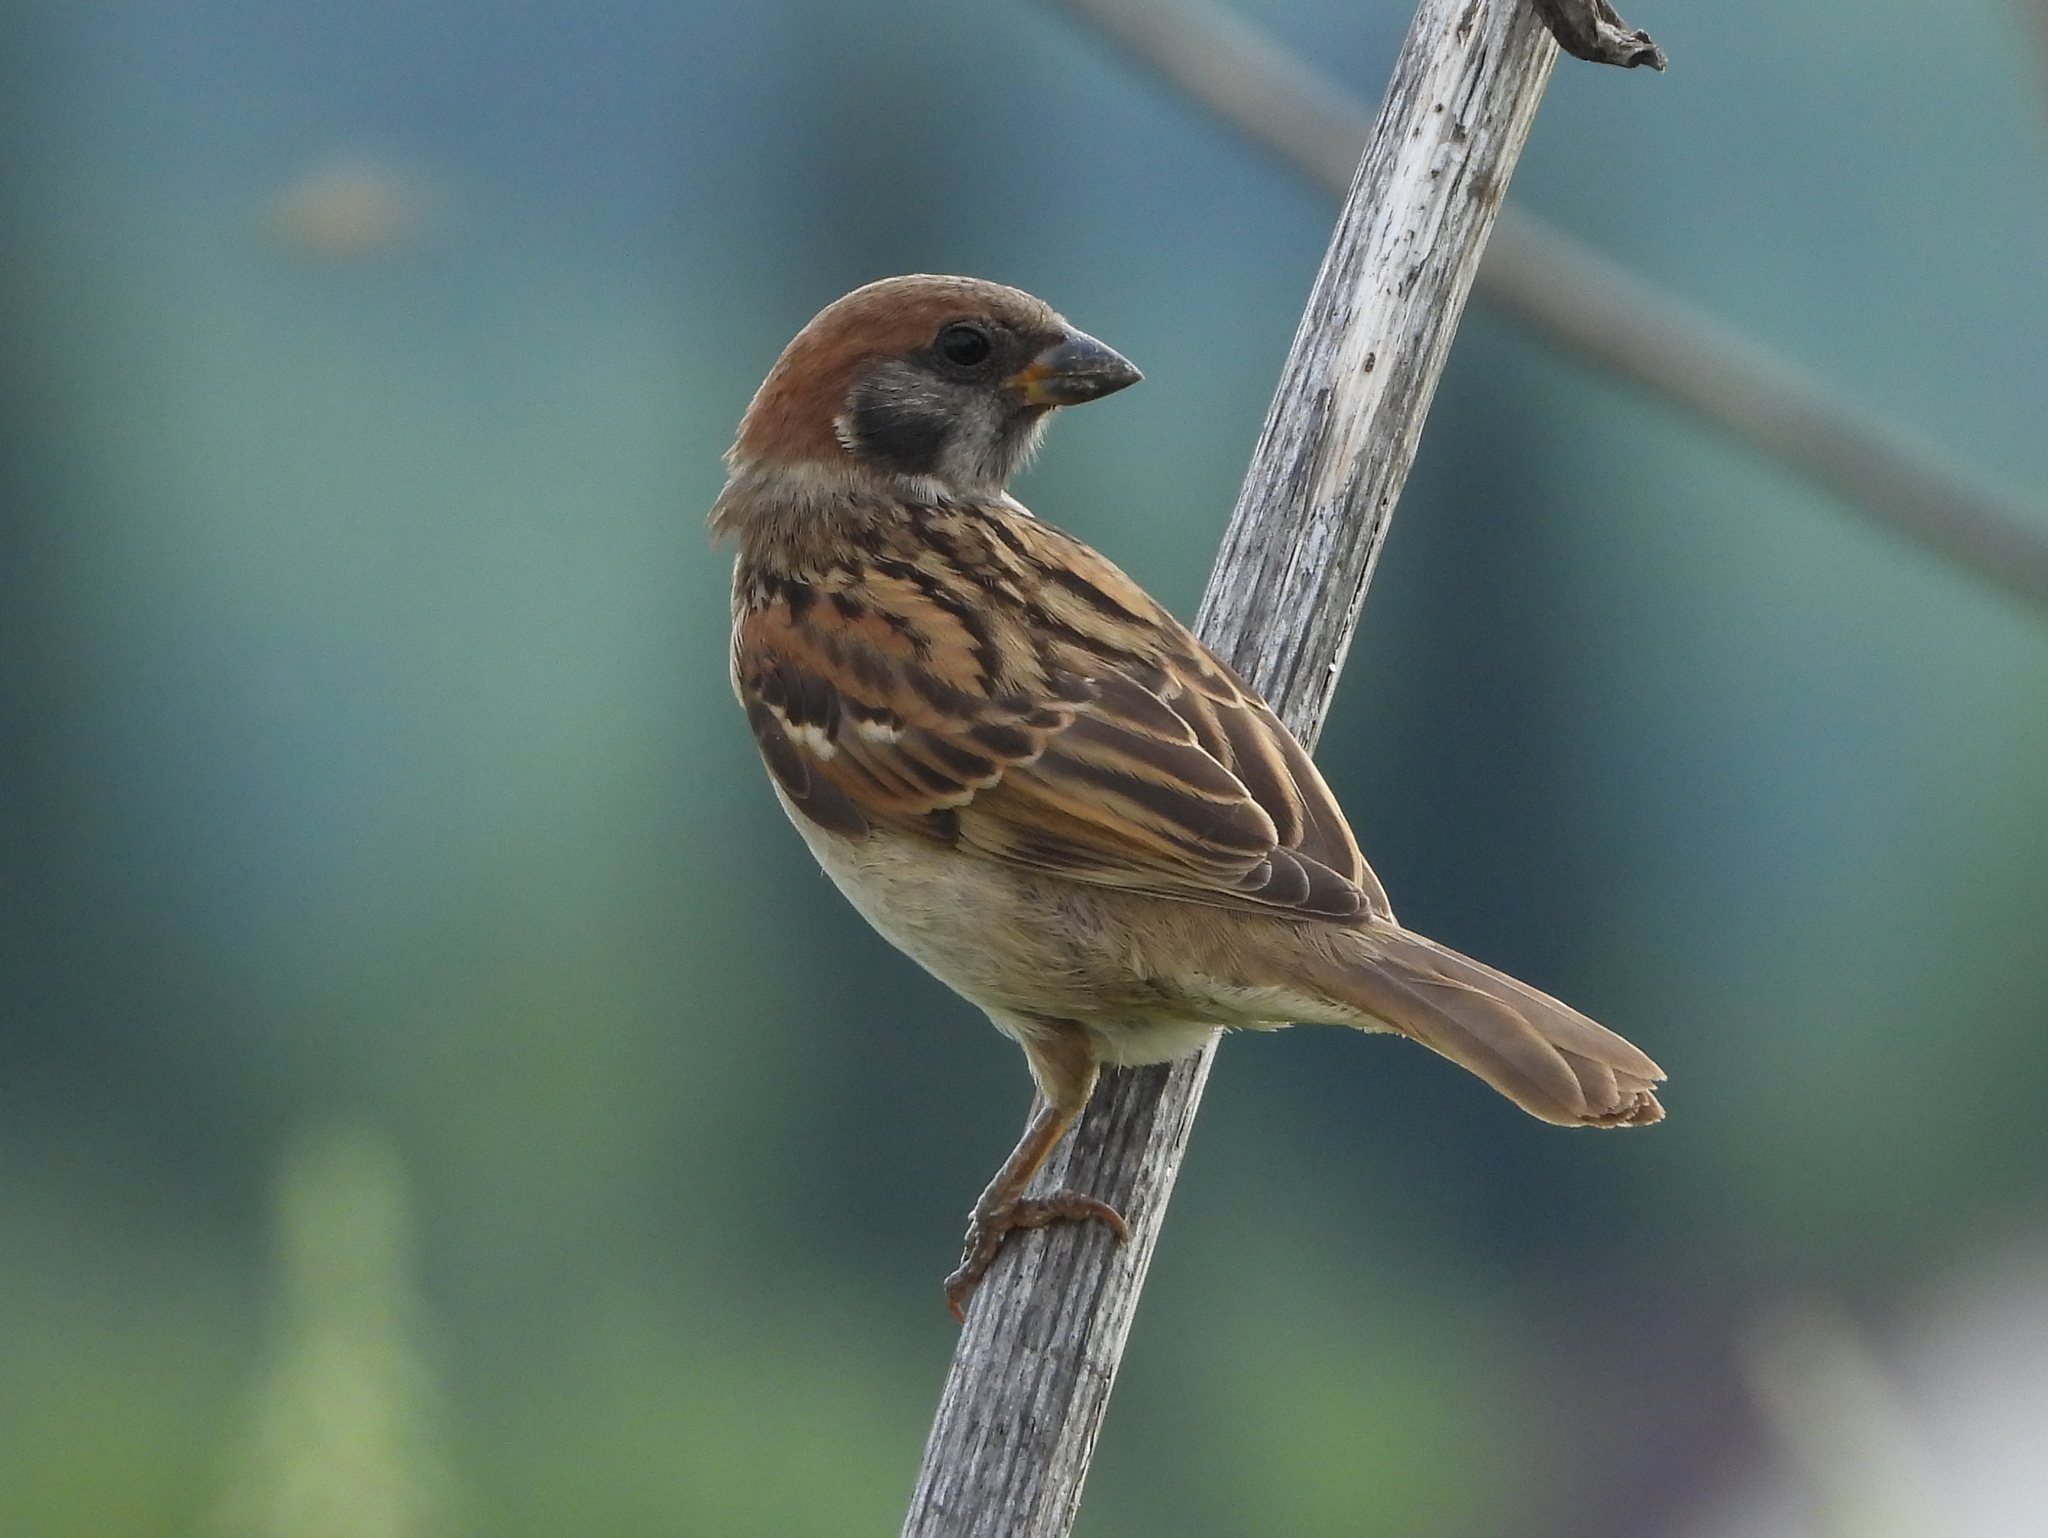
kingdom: Animalia
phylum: Chordata
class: Aves
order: Passeriformes
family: Passeridae
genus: Passer
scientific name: Passer montanus
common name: Eurasian tree sparrow
